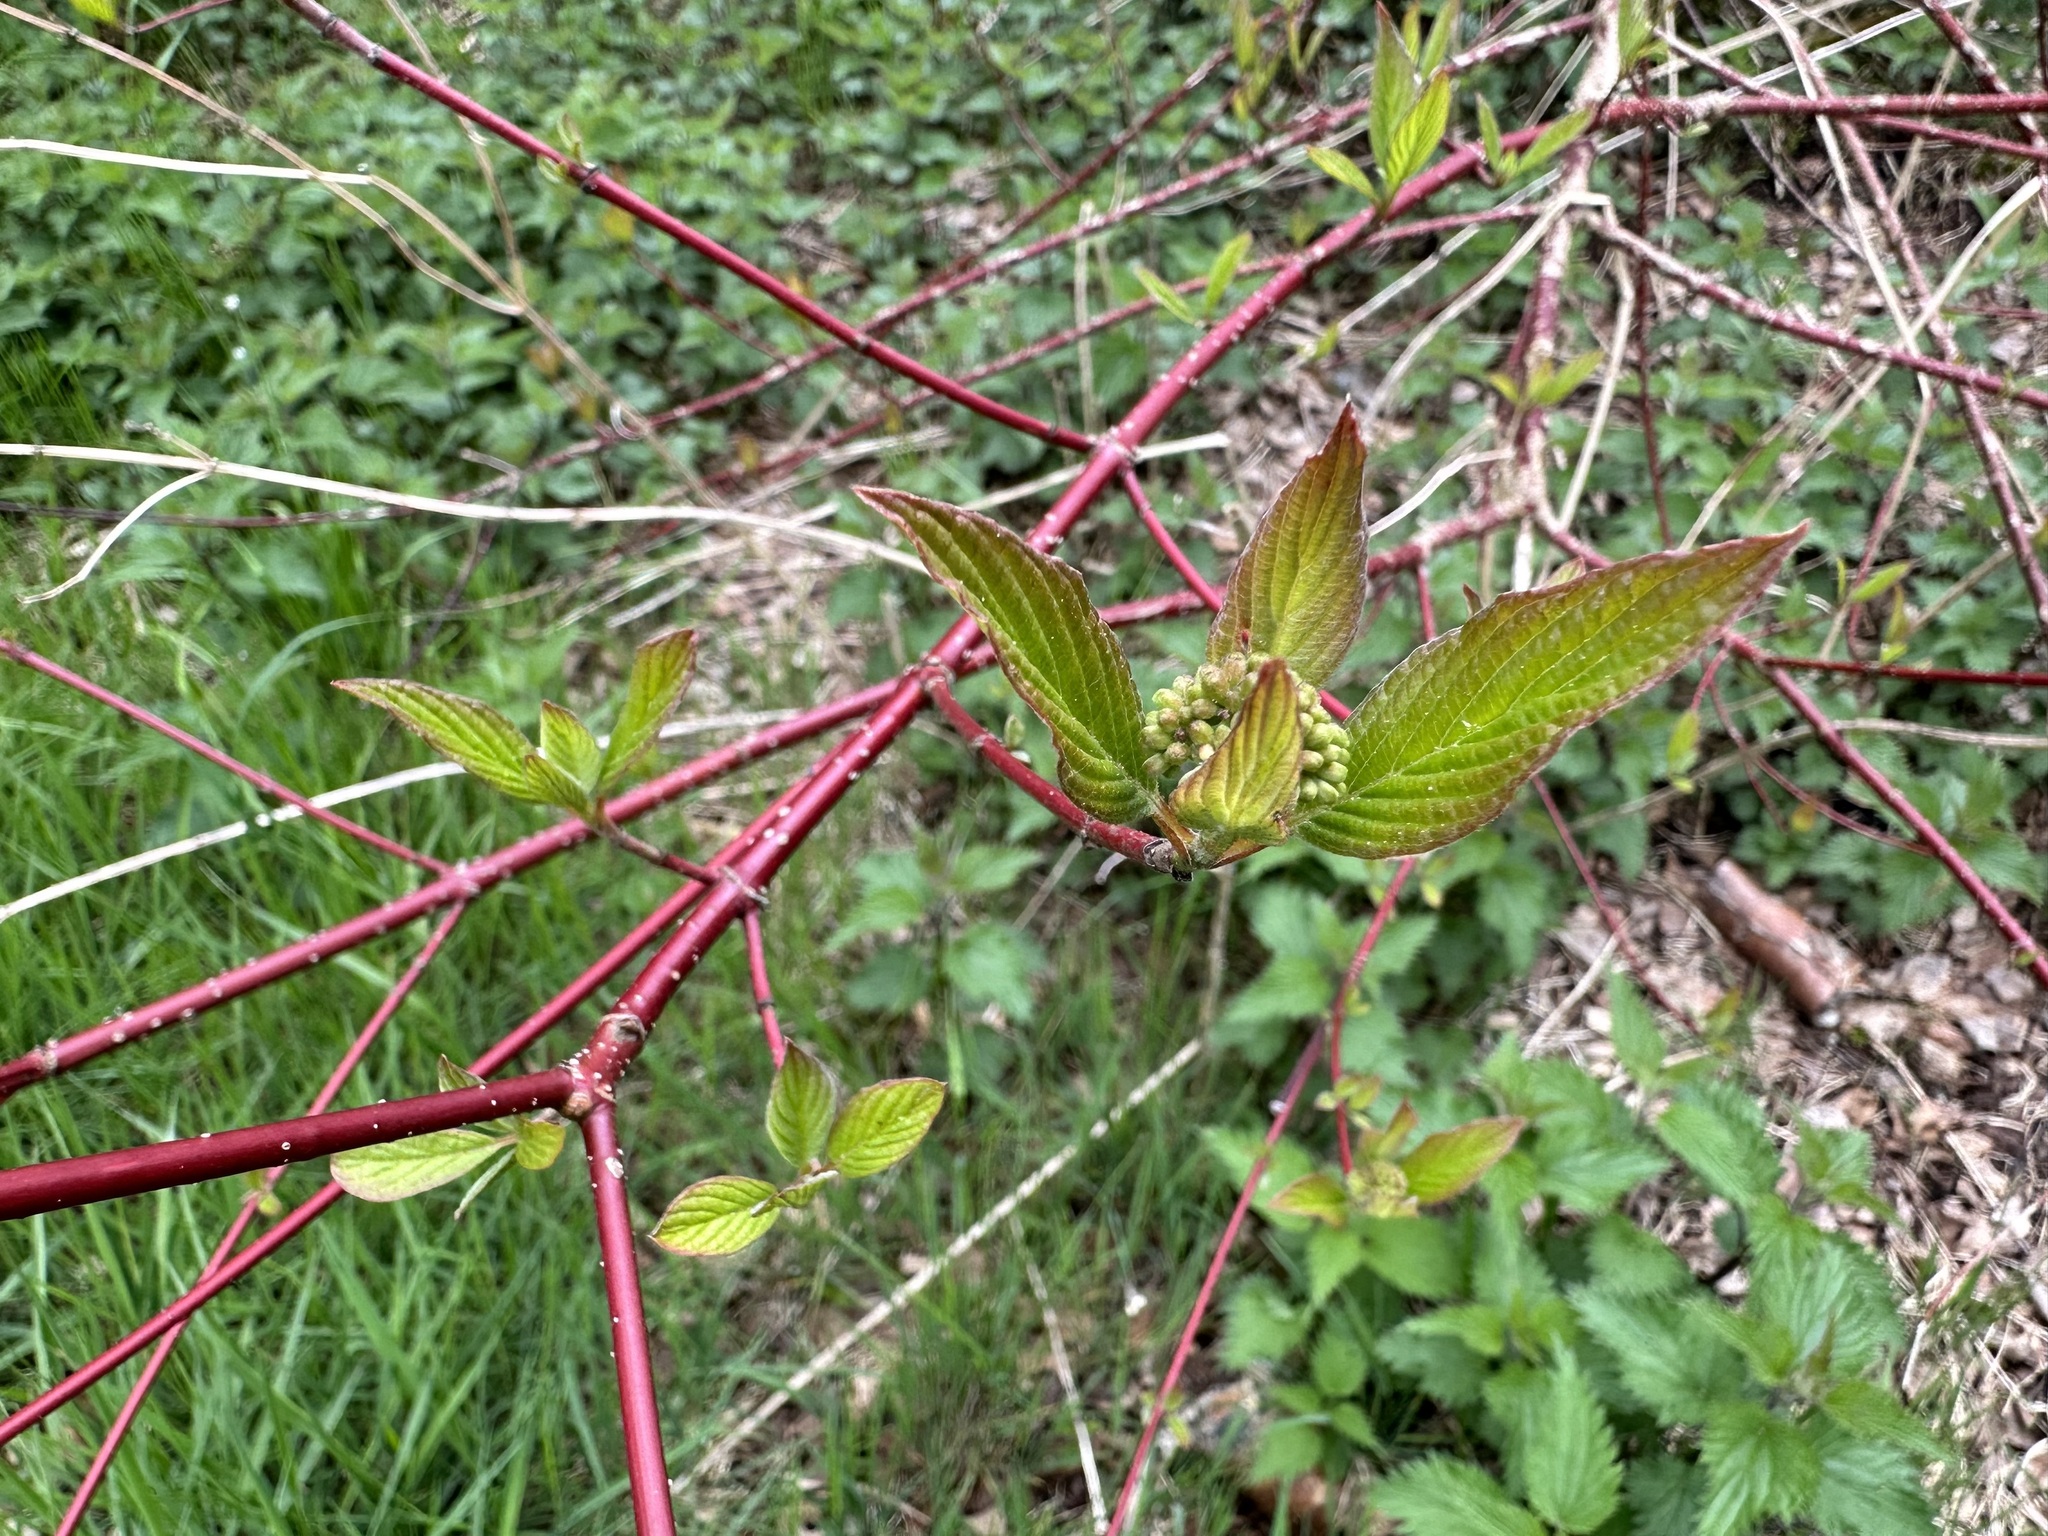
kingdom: Plantae
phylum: Tracheophyta
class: Magnoliopsida
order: Cornales
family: Cornaceae
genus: Cornus
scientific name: Cornus sanguinea
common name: Dogwood
